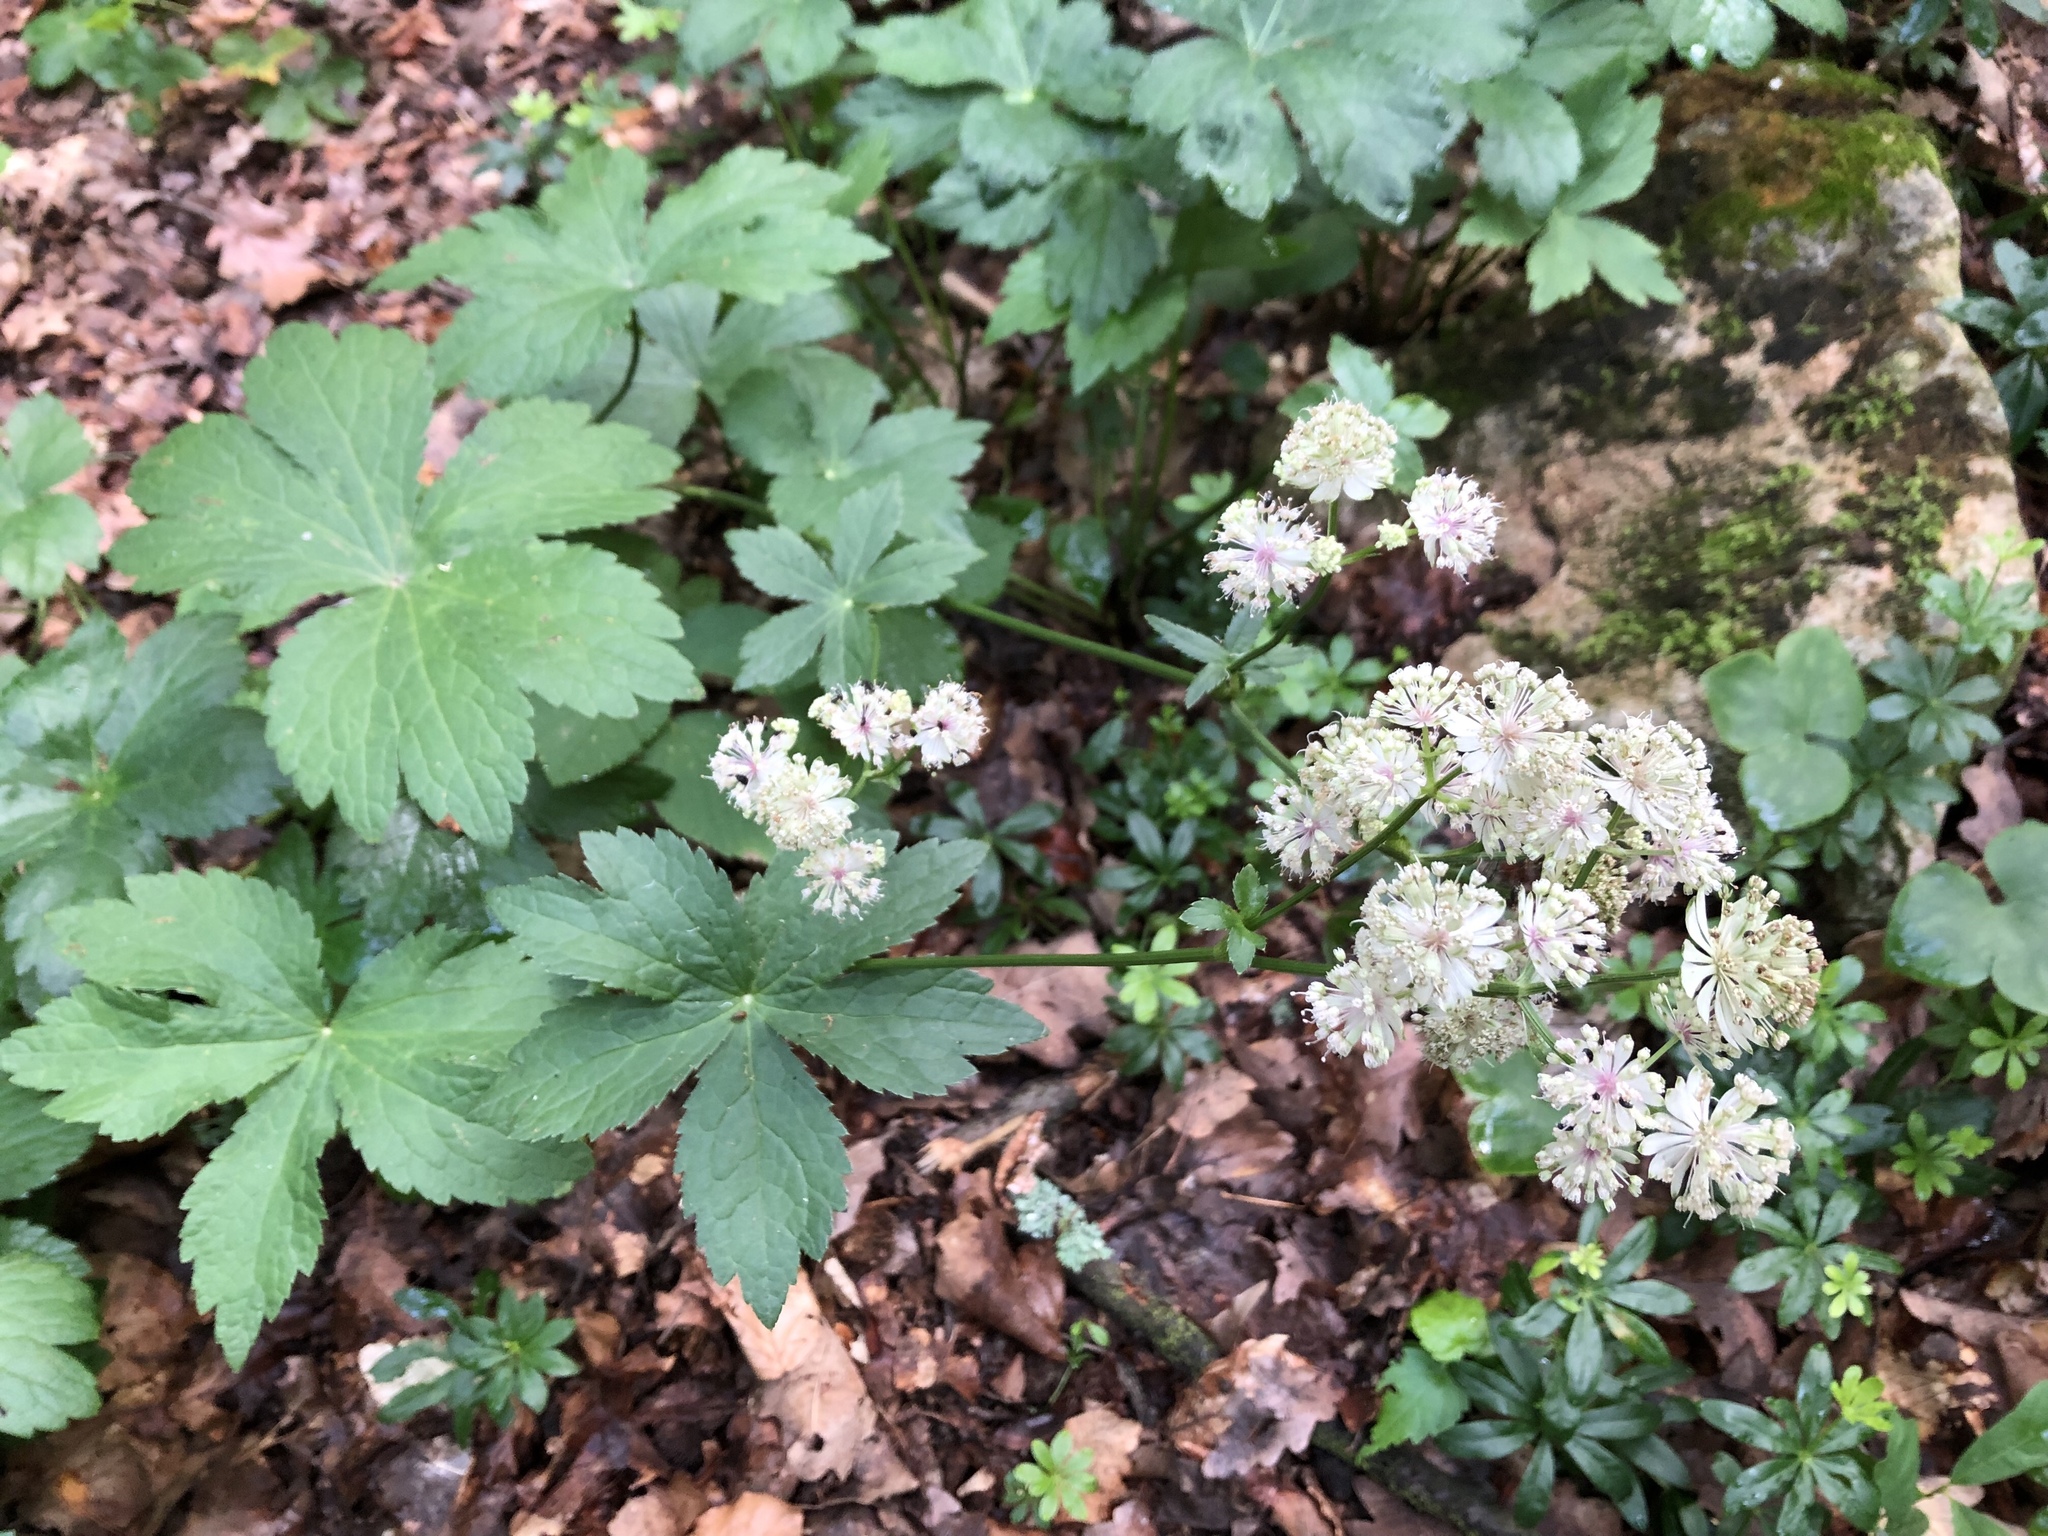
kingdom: Plantae
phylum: Tracheophyta
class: Magnoliopsida
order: Apiales
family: Apiaceae
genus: Astrantia
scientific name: Astrantia major
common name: Greater masterwort
